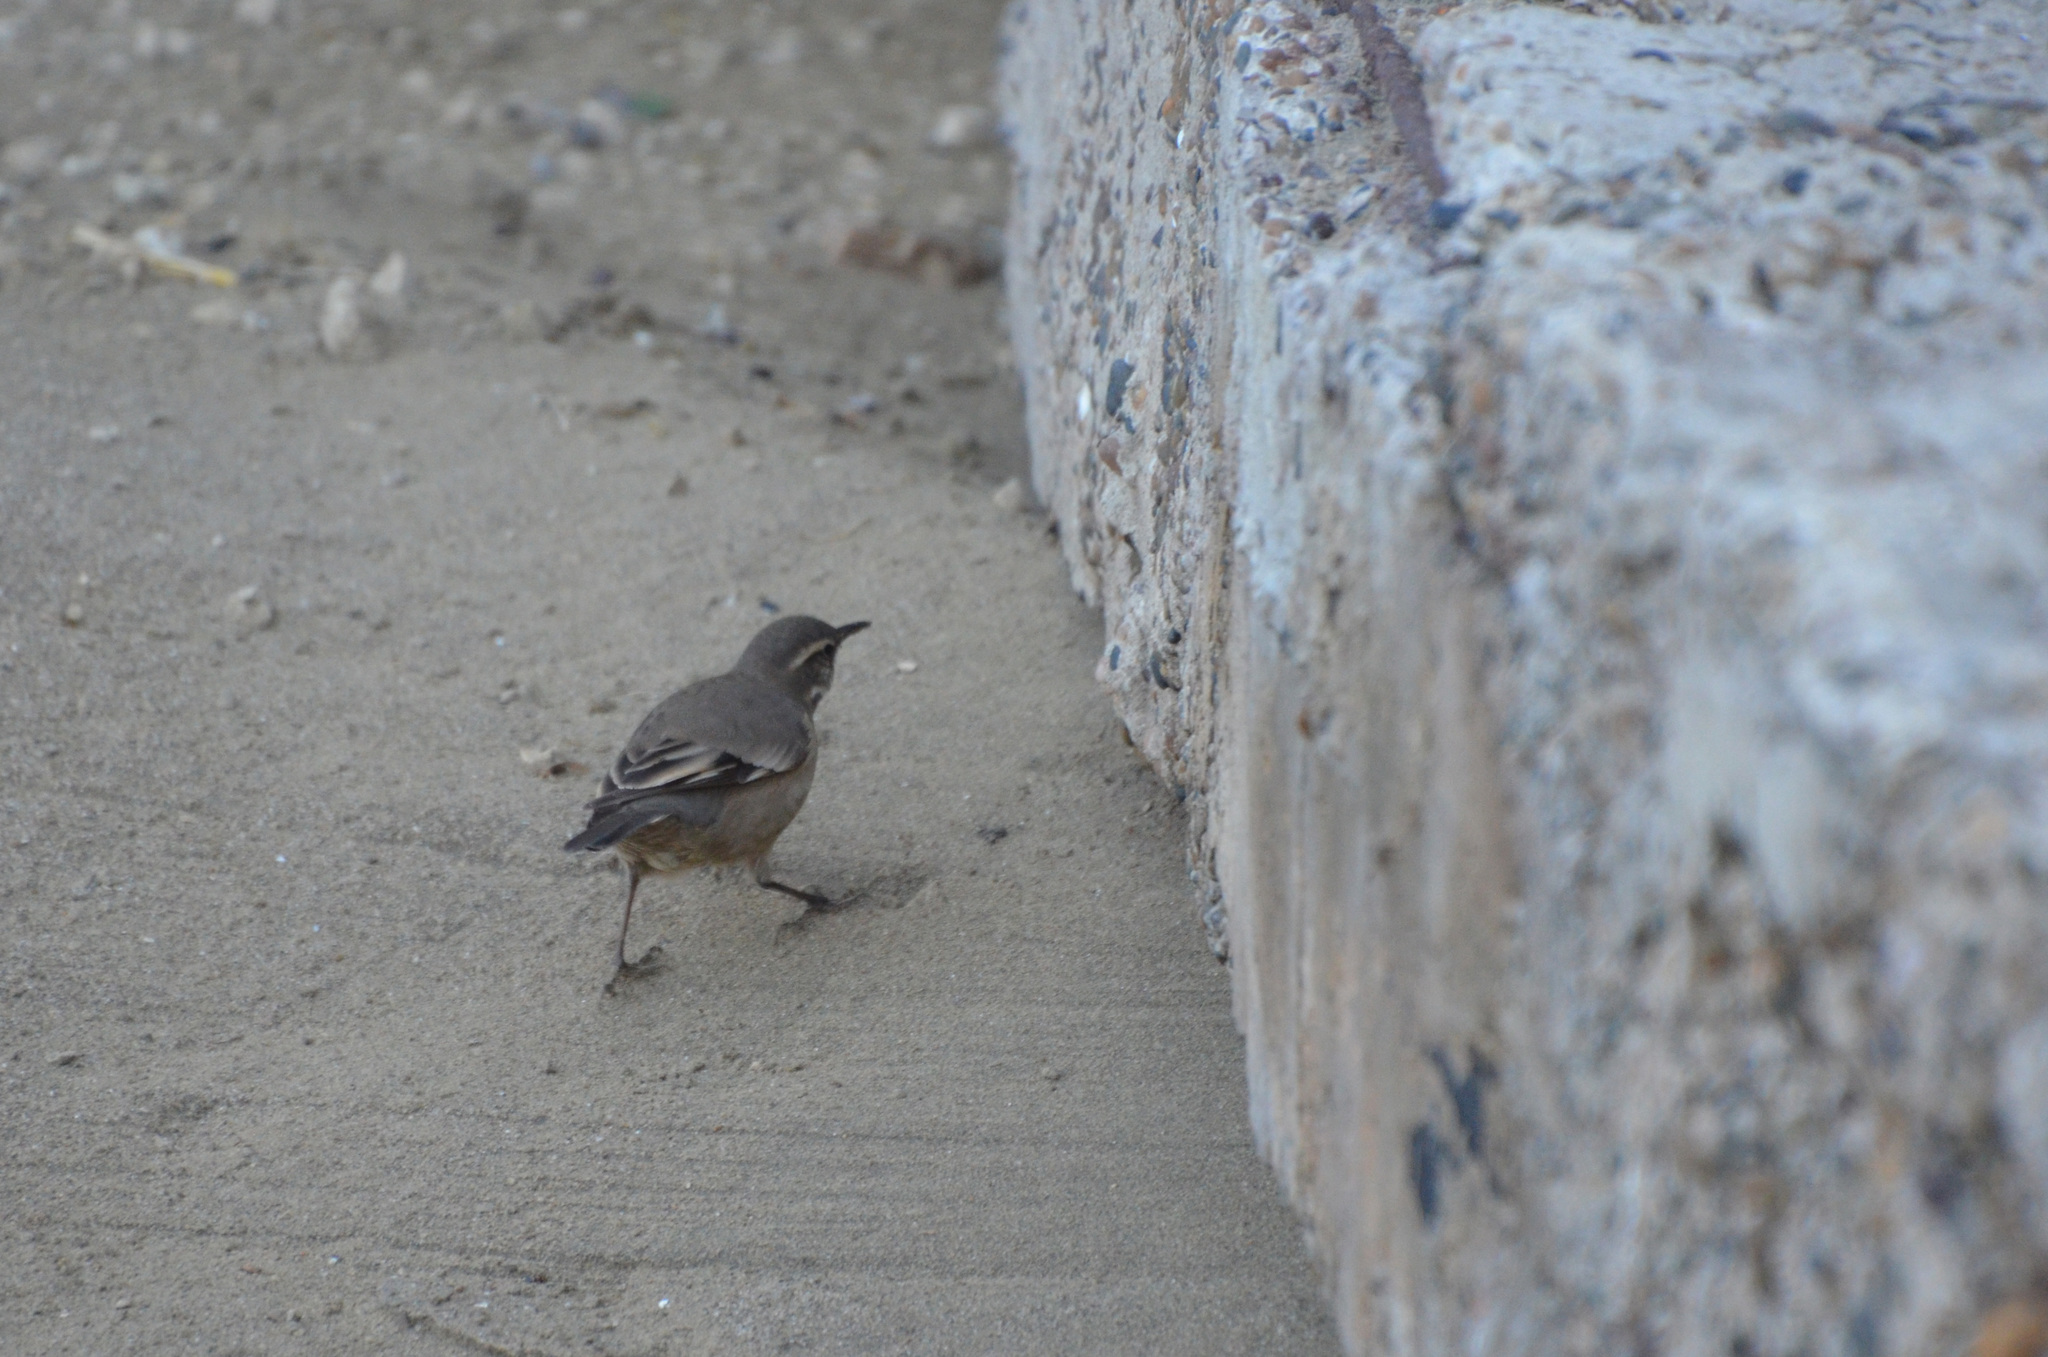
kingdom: Animalia
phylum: Chordata
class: Aves
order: Passeriformes
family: Furnariidae
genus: Cinclodes
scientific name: Cinclodes fuscus
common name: Buff-winged cinclodes
